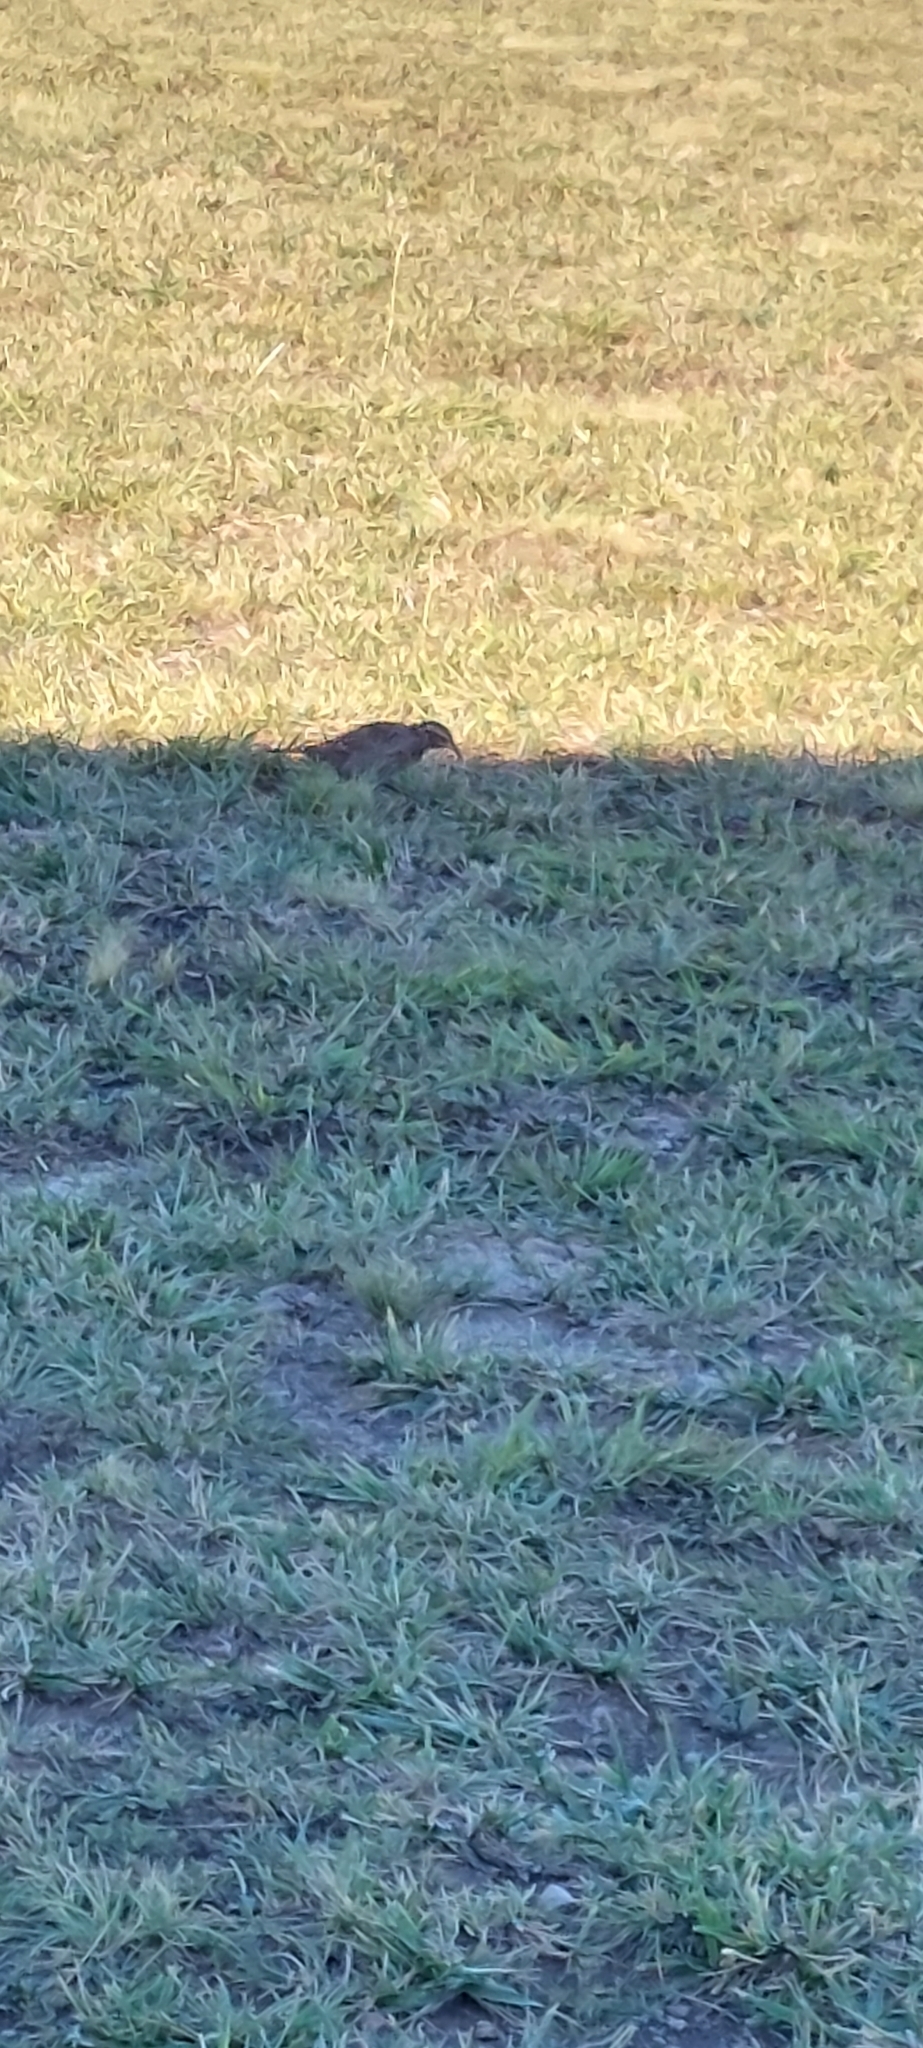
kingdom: Animalia
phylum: Chordata
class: Aves
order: Passeriformes
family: Icteridae
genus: Sturnella
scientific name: Sturnella loyca
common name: Long-tailed meadowlark
